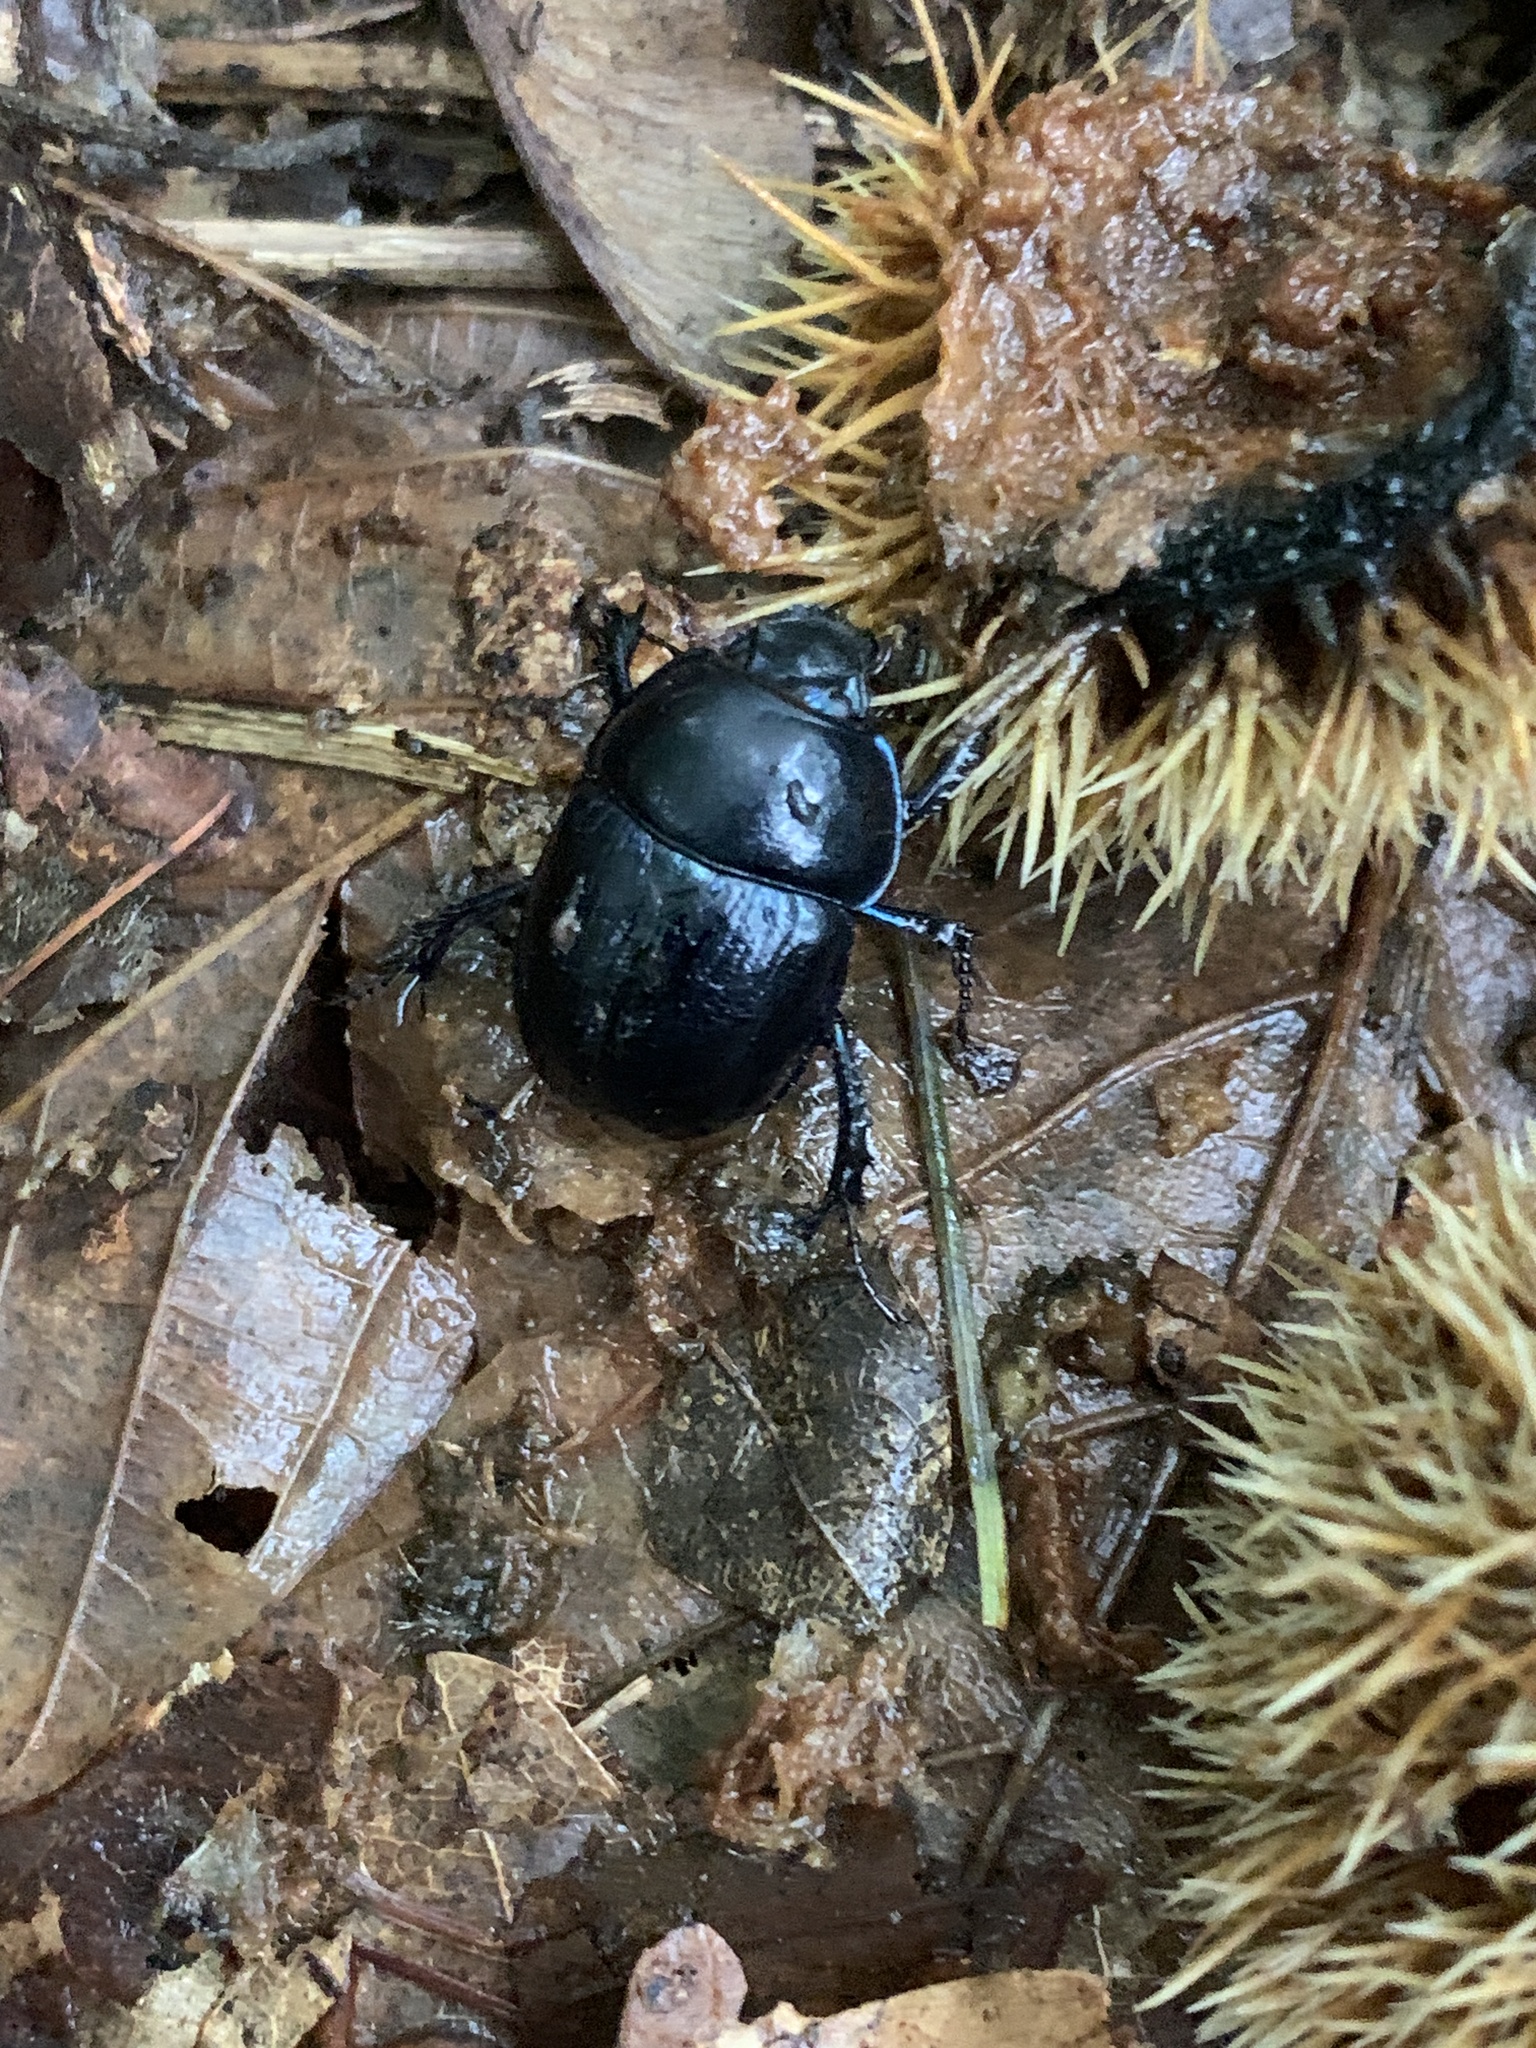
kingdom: Animalia
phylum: Arthropoda
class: Insecta
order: Coleoptera
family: Geotrupidae
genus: Anoplotrupes
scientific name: Anoplotrupes stercorosus
